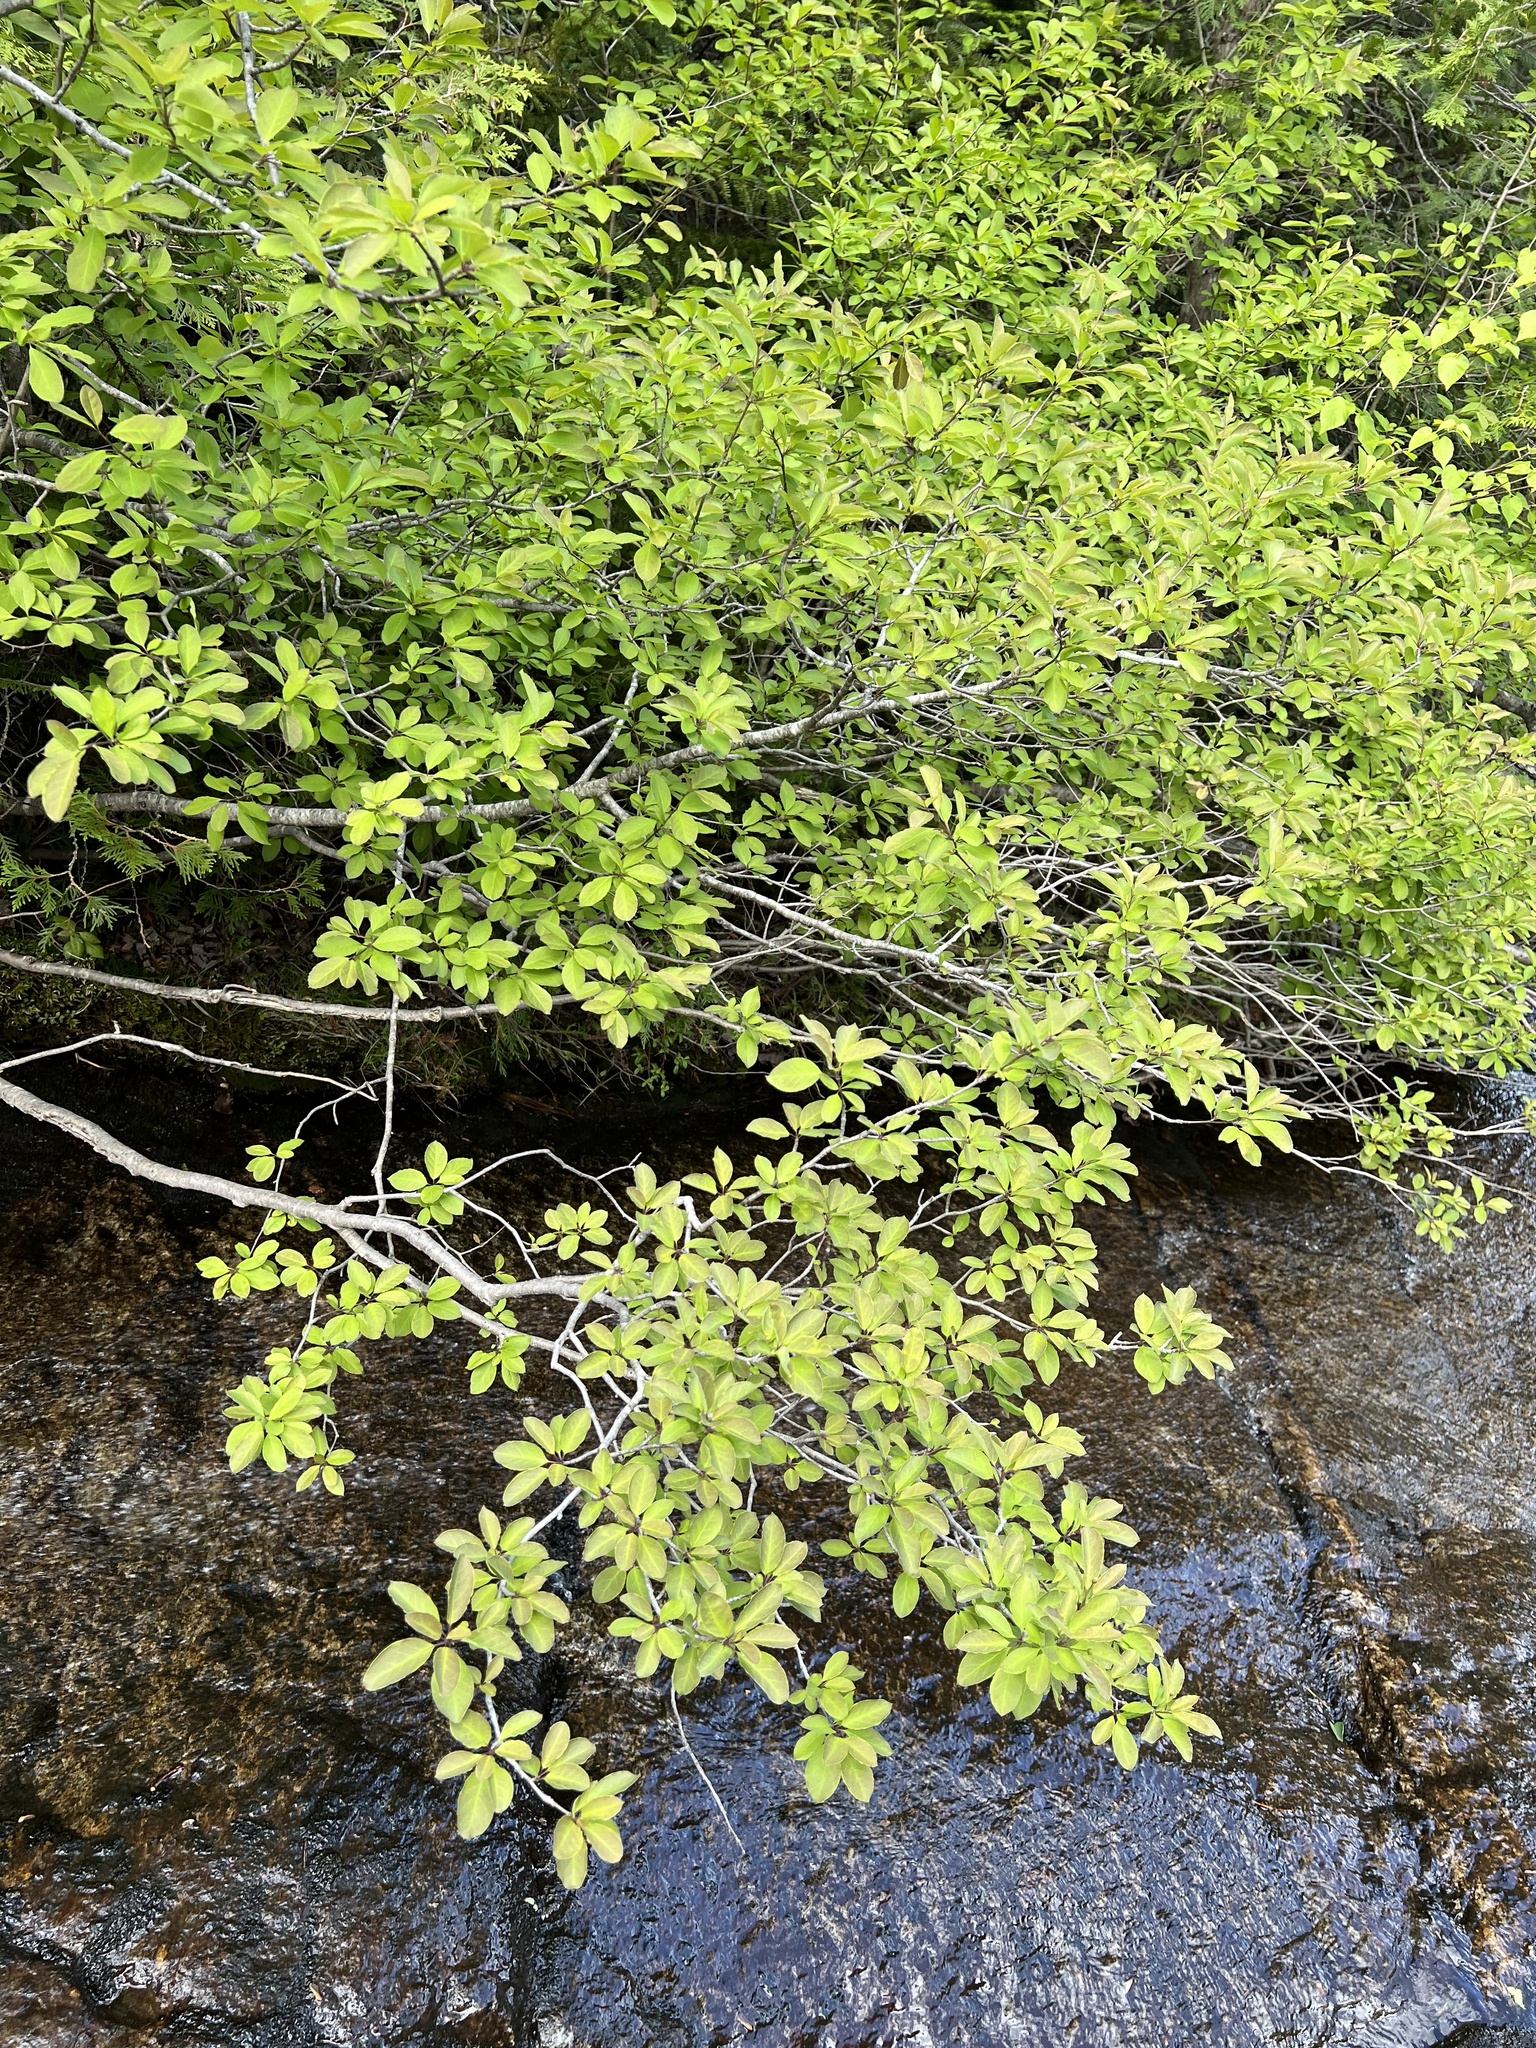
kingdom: Plantae
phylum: Tracheophyta
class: Magnoliopsida
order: Aquifoliales
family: Aquifoliaceae
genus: Ilex
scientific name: Ilex mucronata
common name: Catberry
